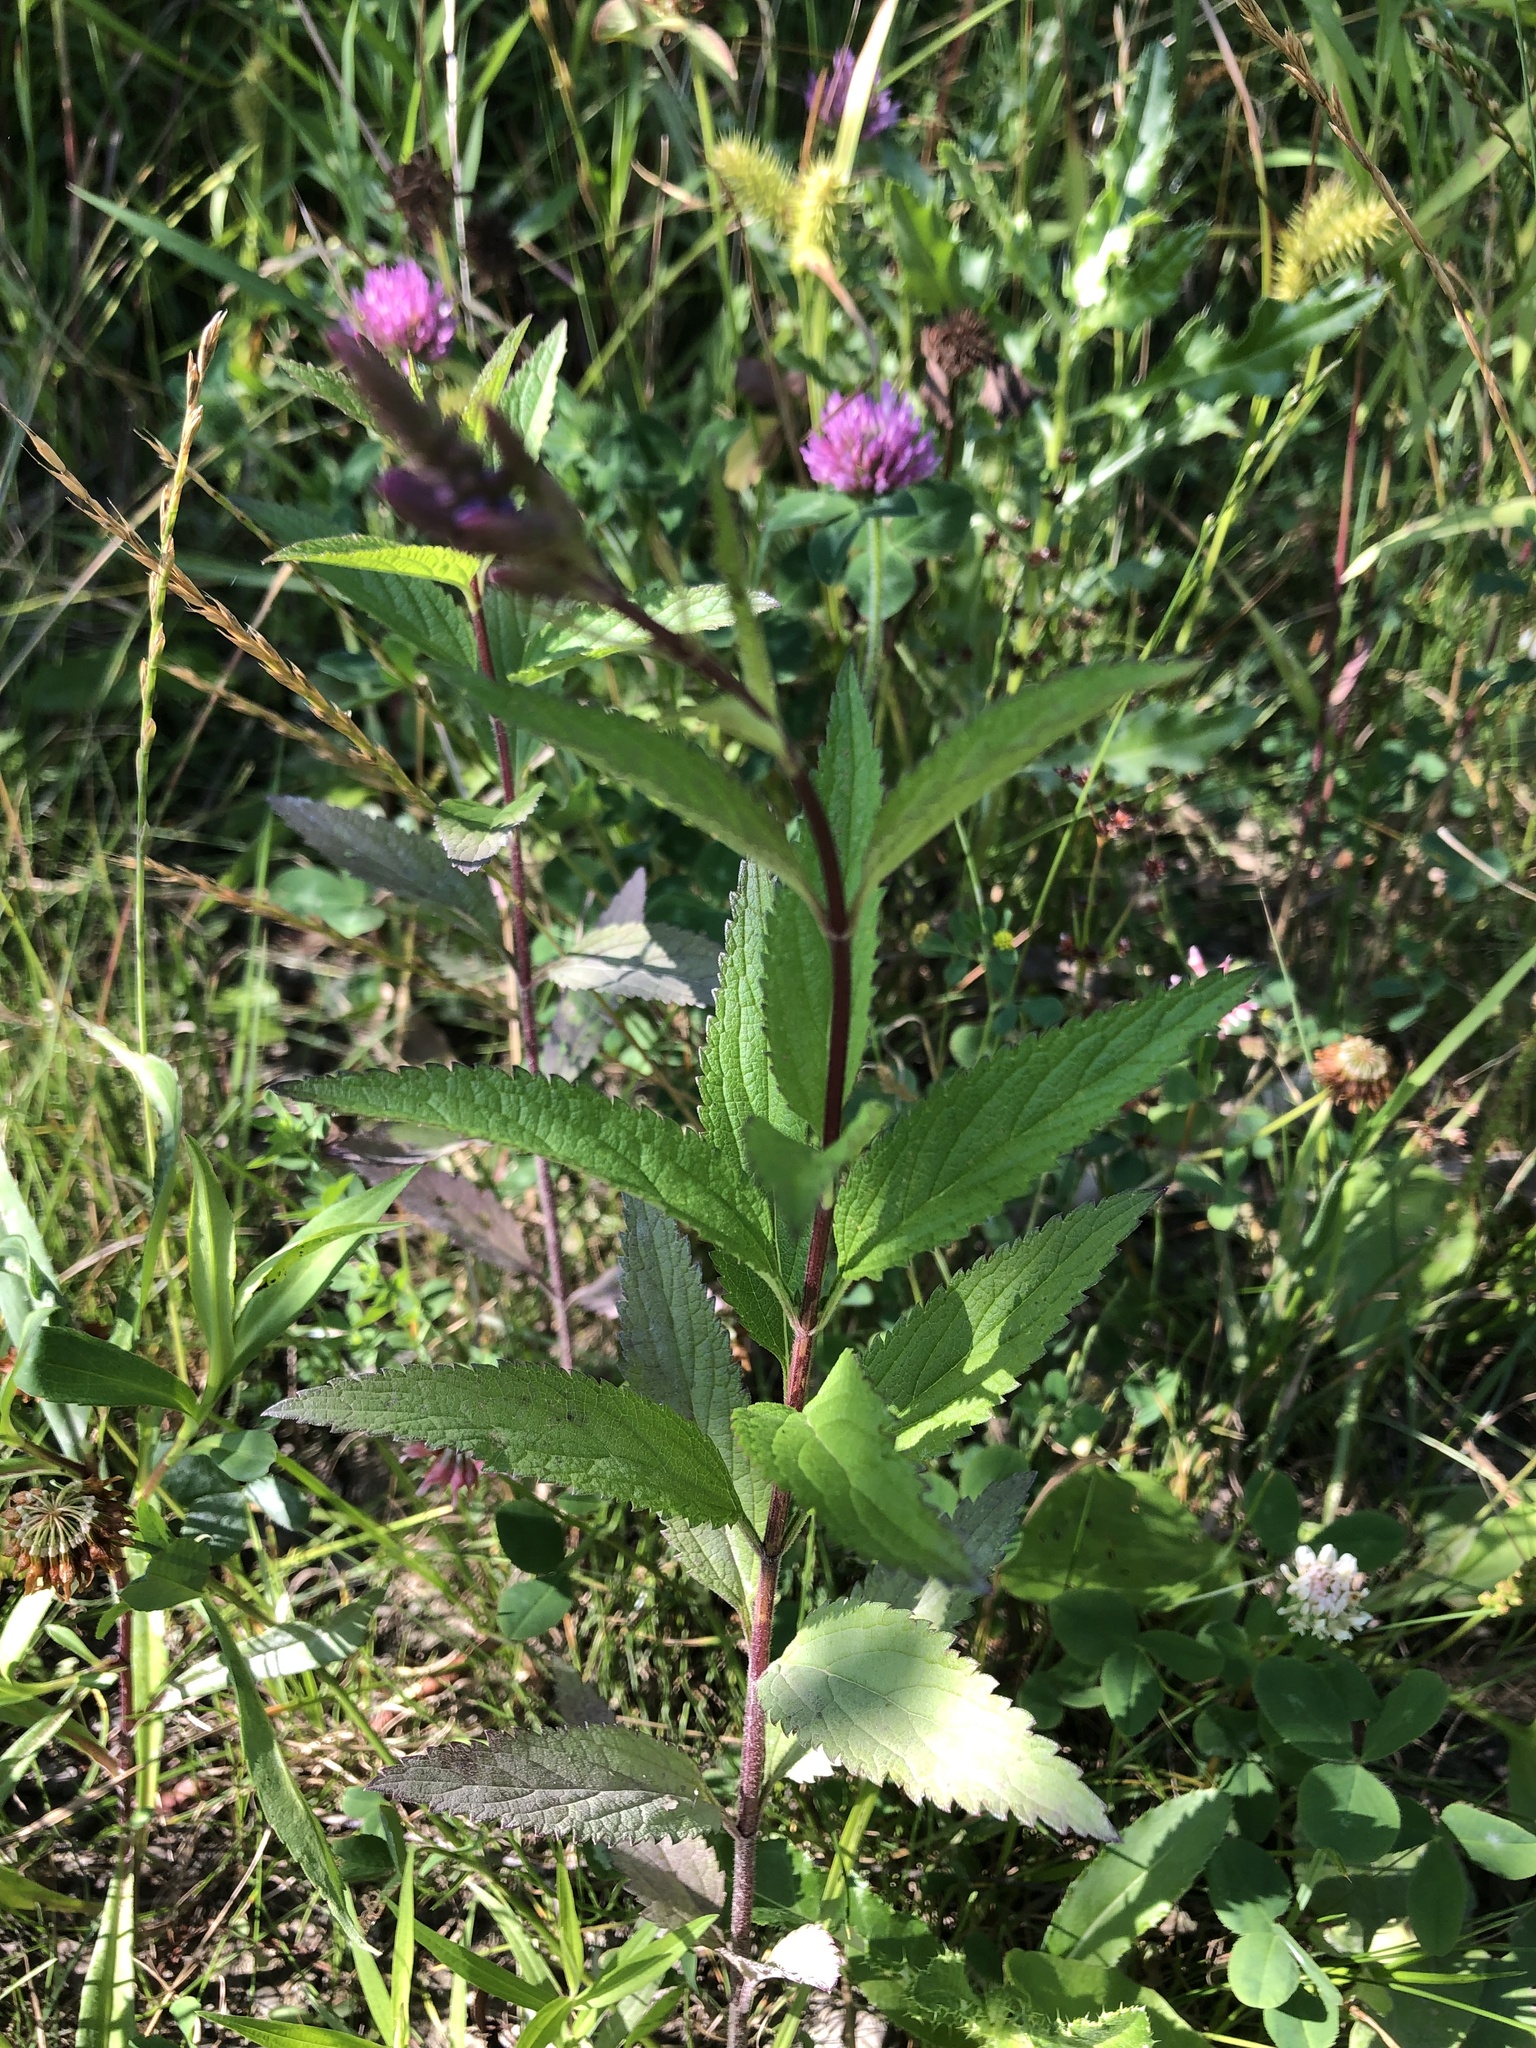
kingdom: Plantae
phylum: Tracheophyta
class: Magnoliopsida
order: Lamiales
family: Verbenaceae
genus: Verbena
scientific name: Verbena hastata
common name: American blue vervain
